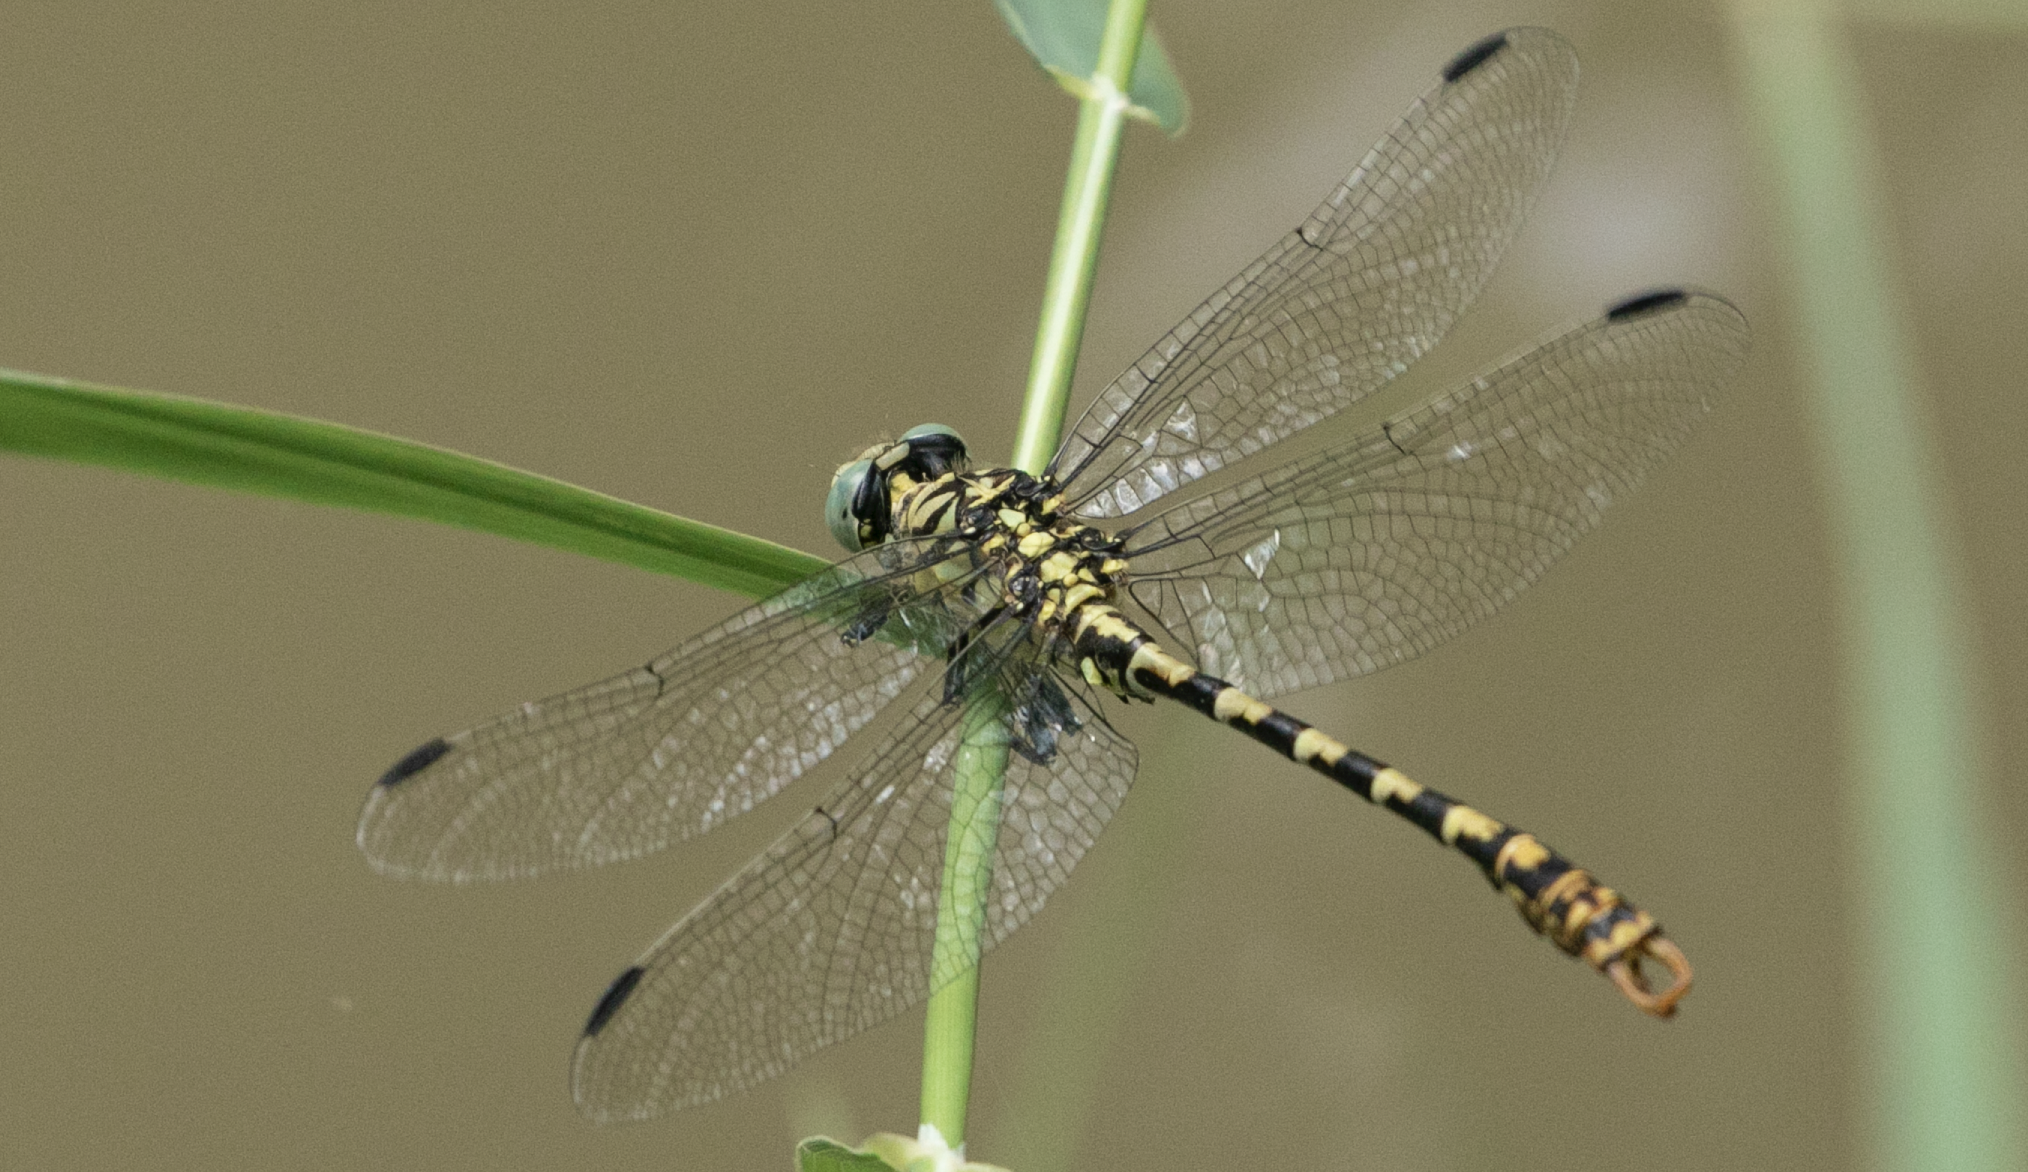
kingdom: Animalia
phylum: Arthropoda
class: Insecta
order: Odonata
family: Gomphidae
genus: Onychogomphus
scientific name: Onychogomphus forcipatus
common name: Small pincertail
